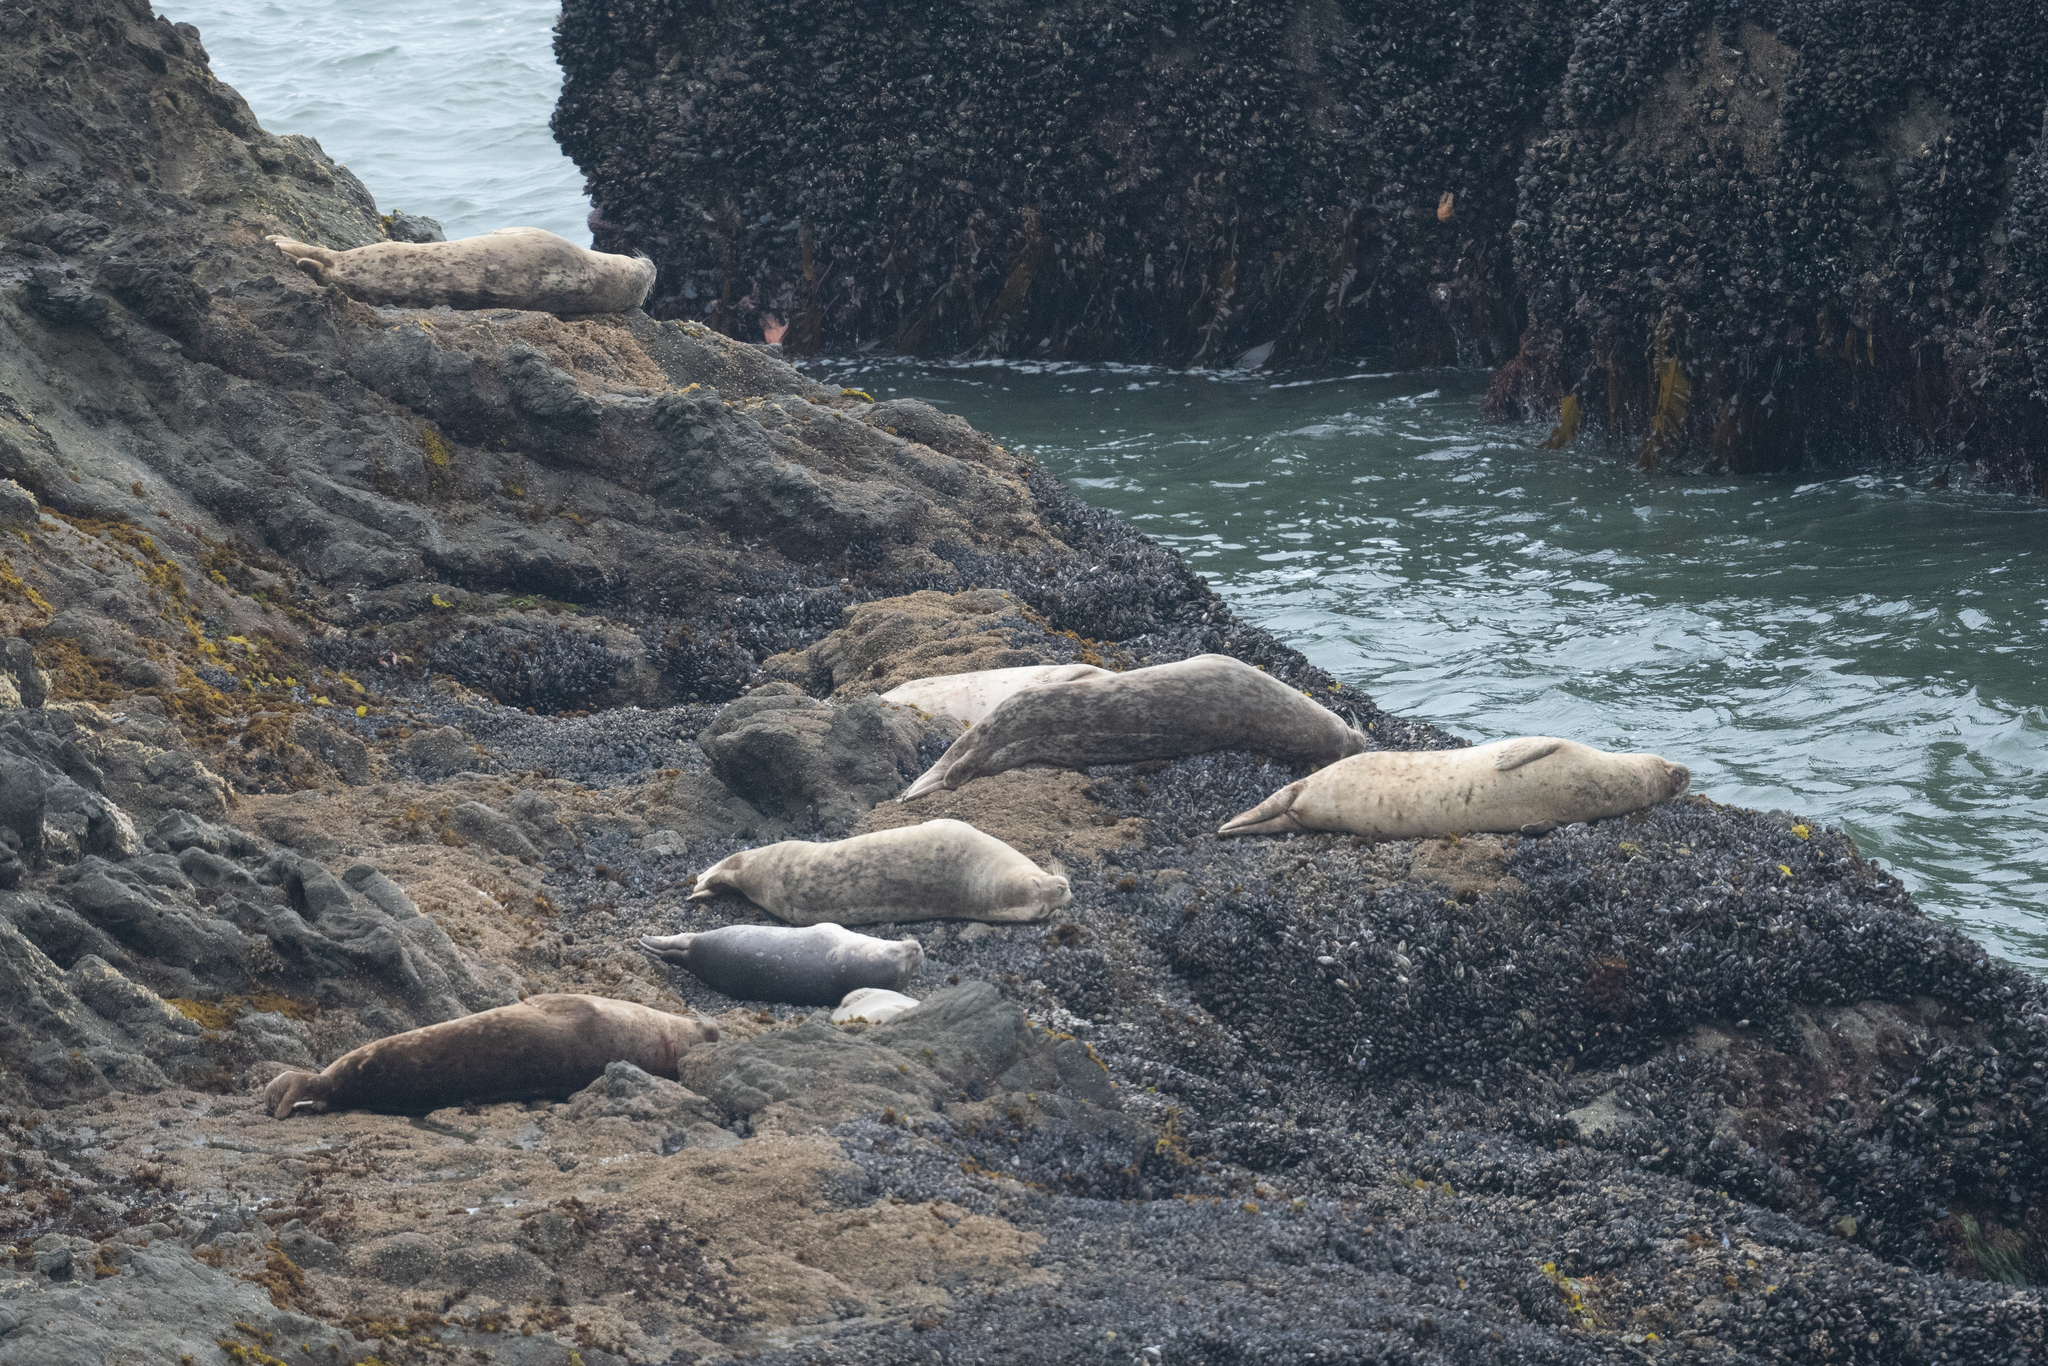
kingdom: Animalia
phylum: Chordata
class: Mammalia
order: Carnivora
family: Phocidae
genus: Phoca
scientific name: Phoca vitulina
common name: Harbor seal
